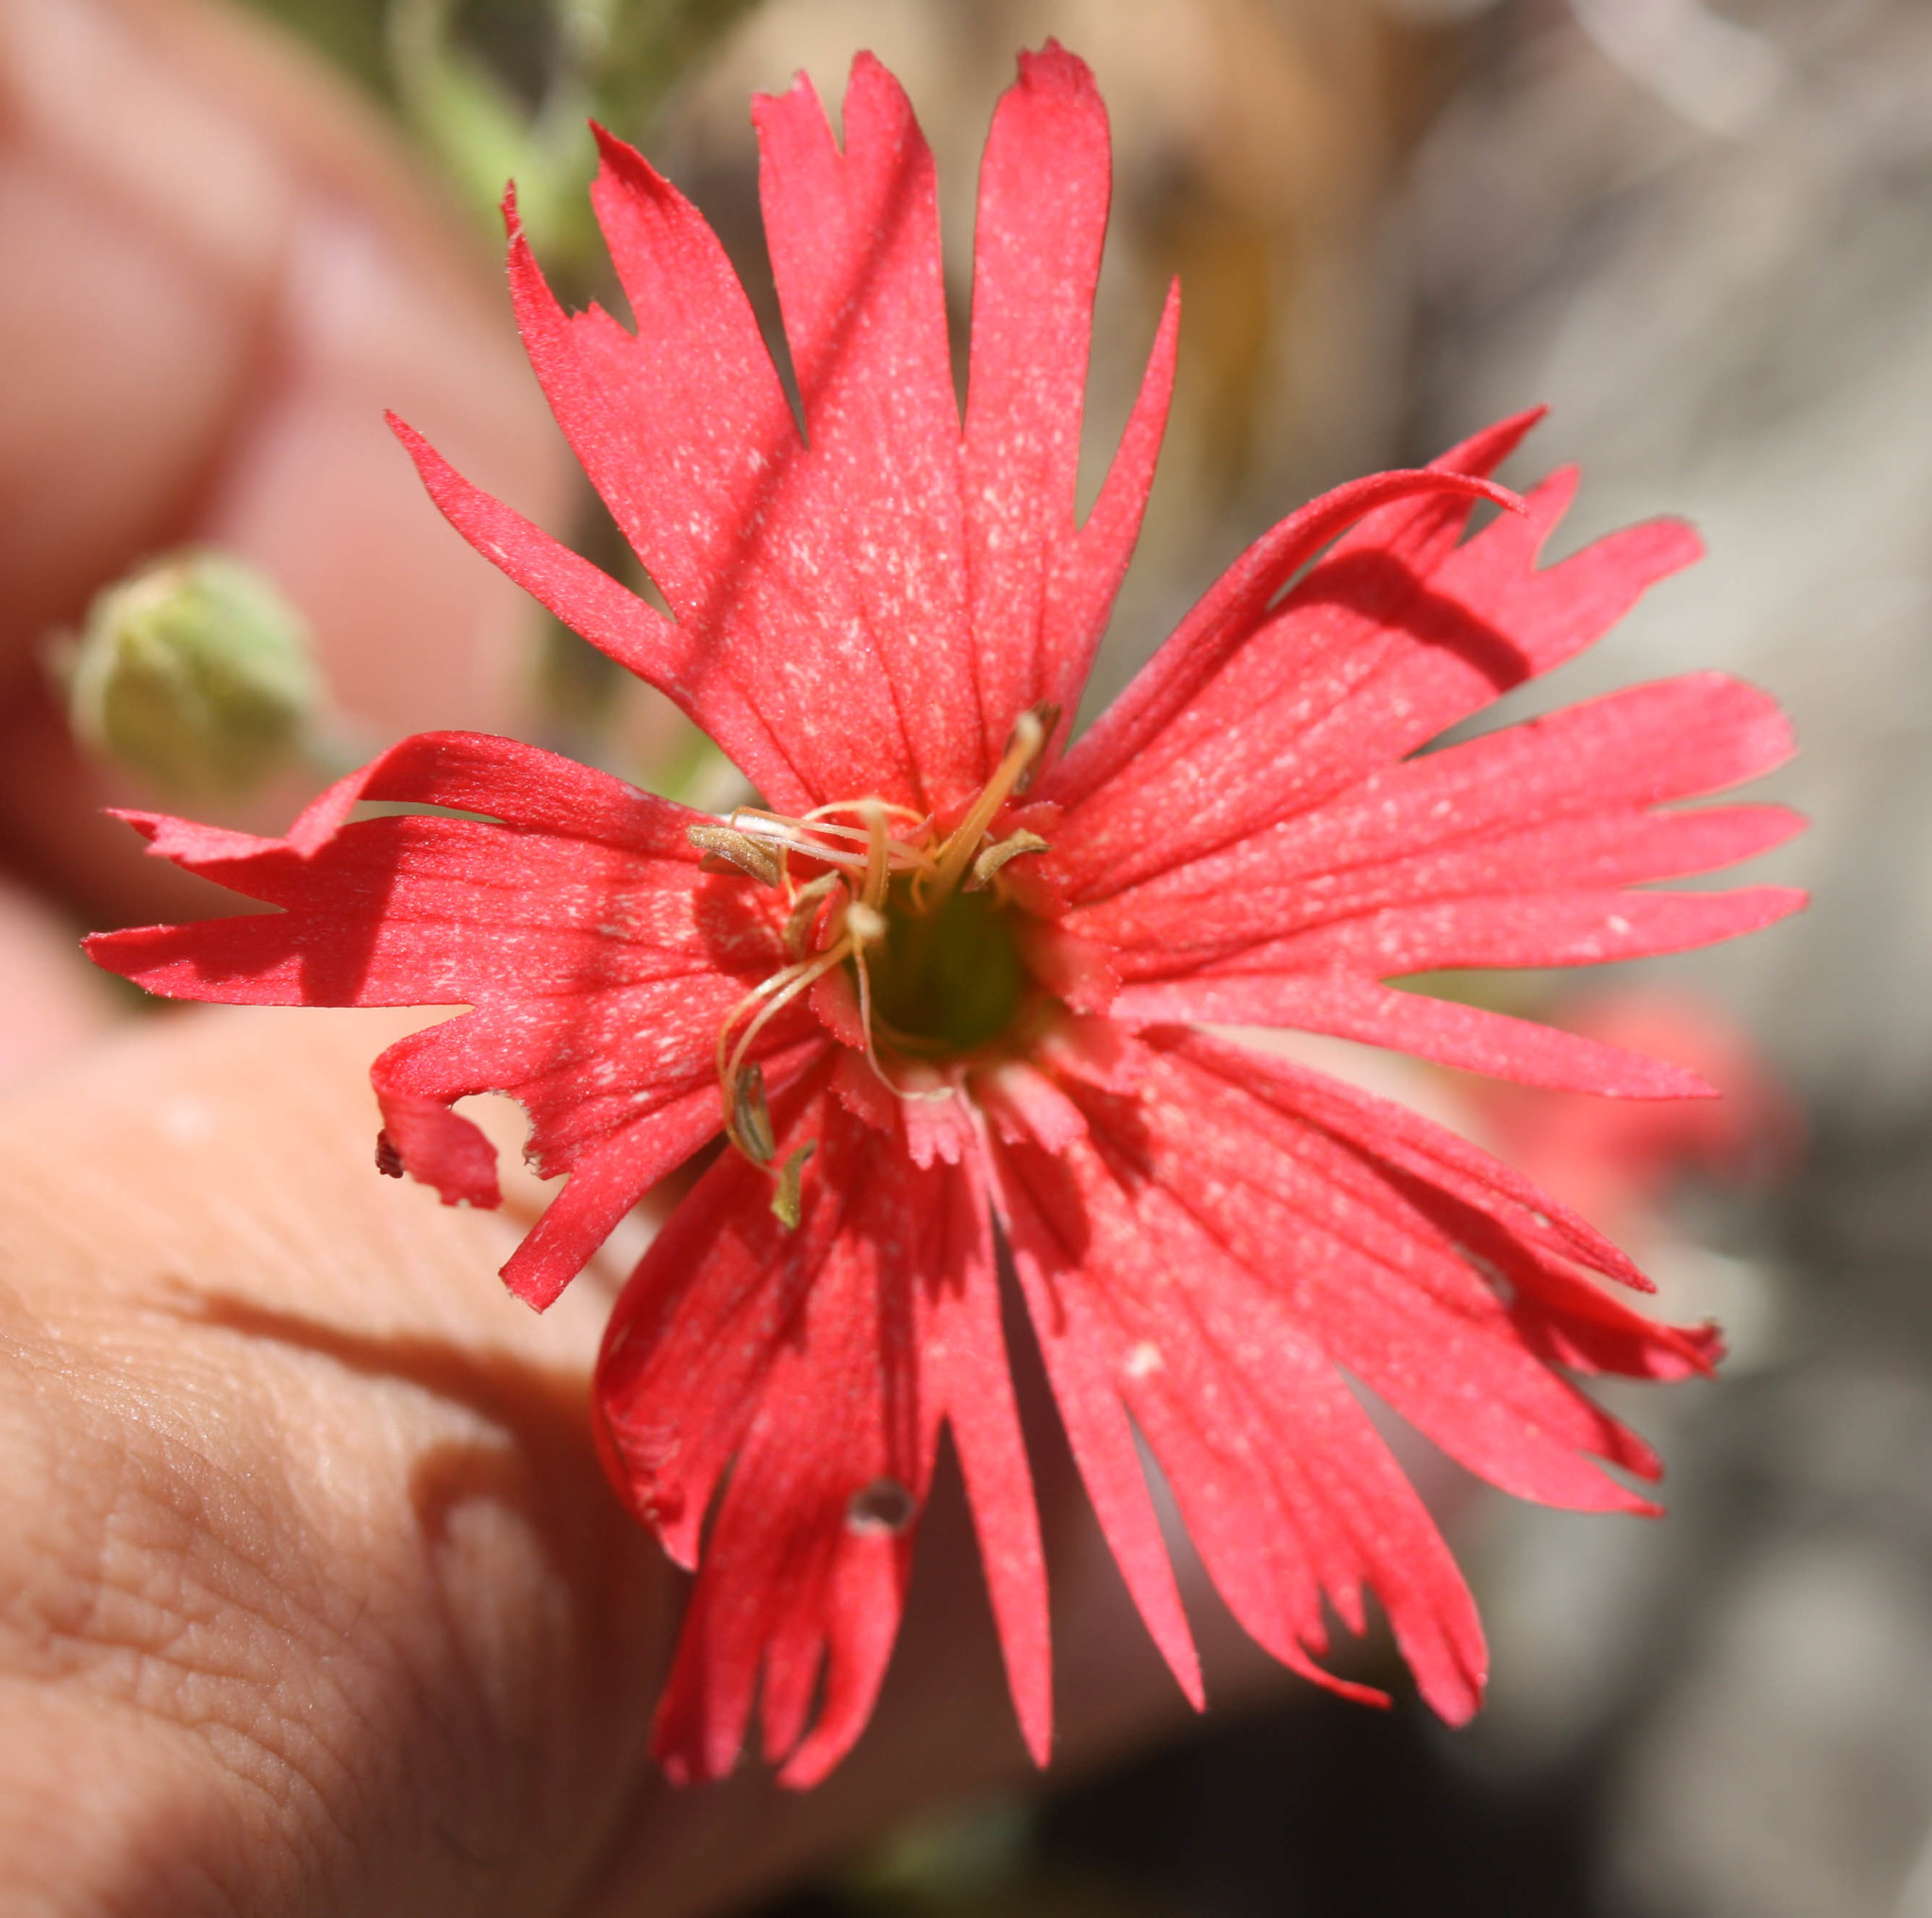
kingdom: Plantae
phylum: Tracheophyta
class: Magnoliopsida
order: Caryophyllales
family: Caryophyllaceae
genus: Silene
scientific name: Silene laciniata
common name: Indian-pink
